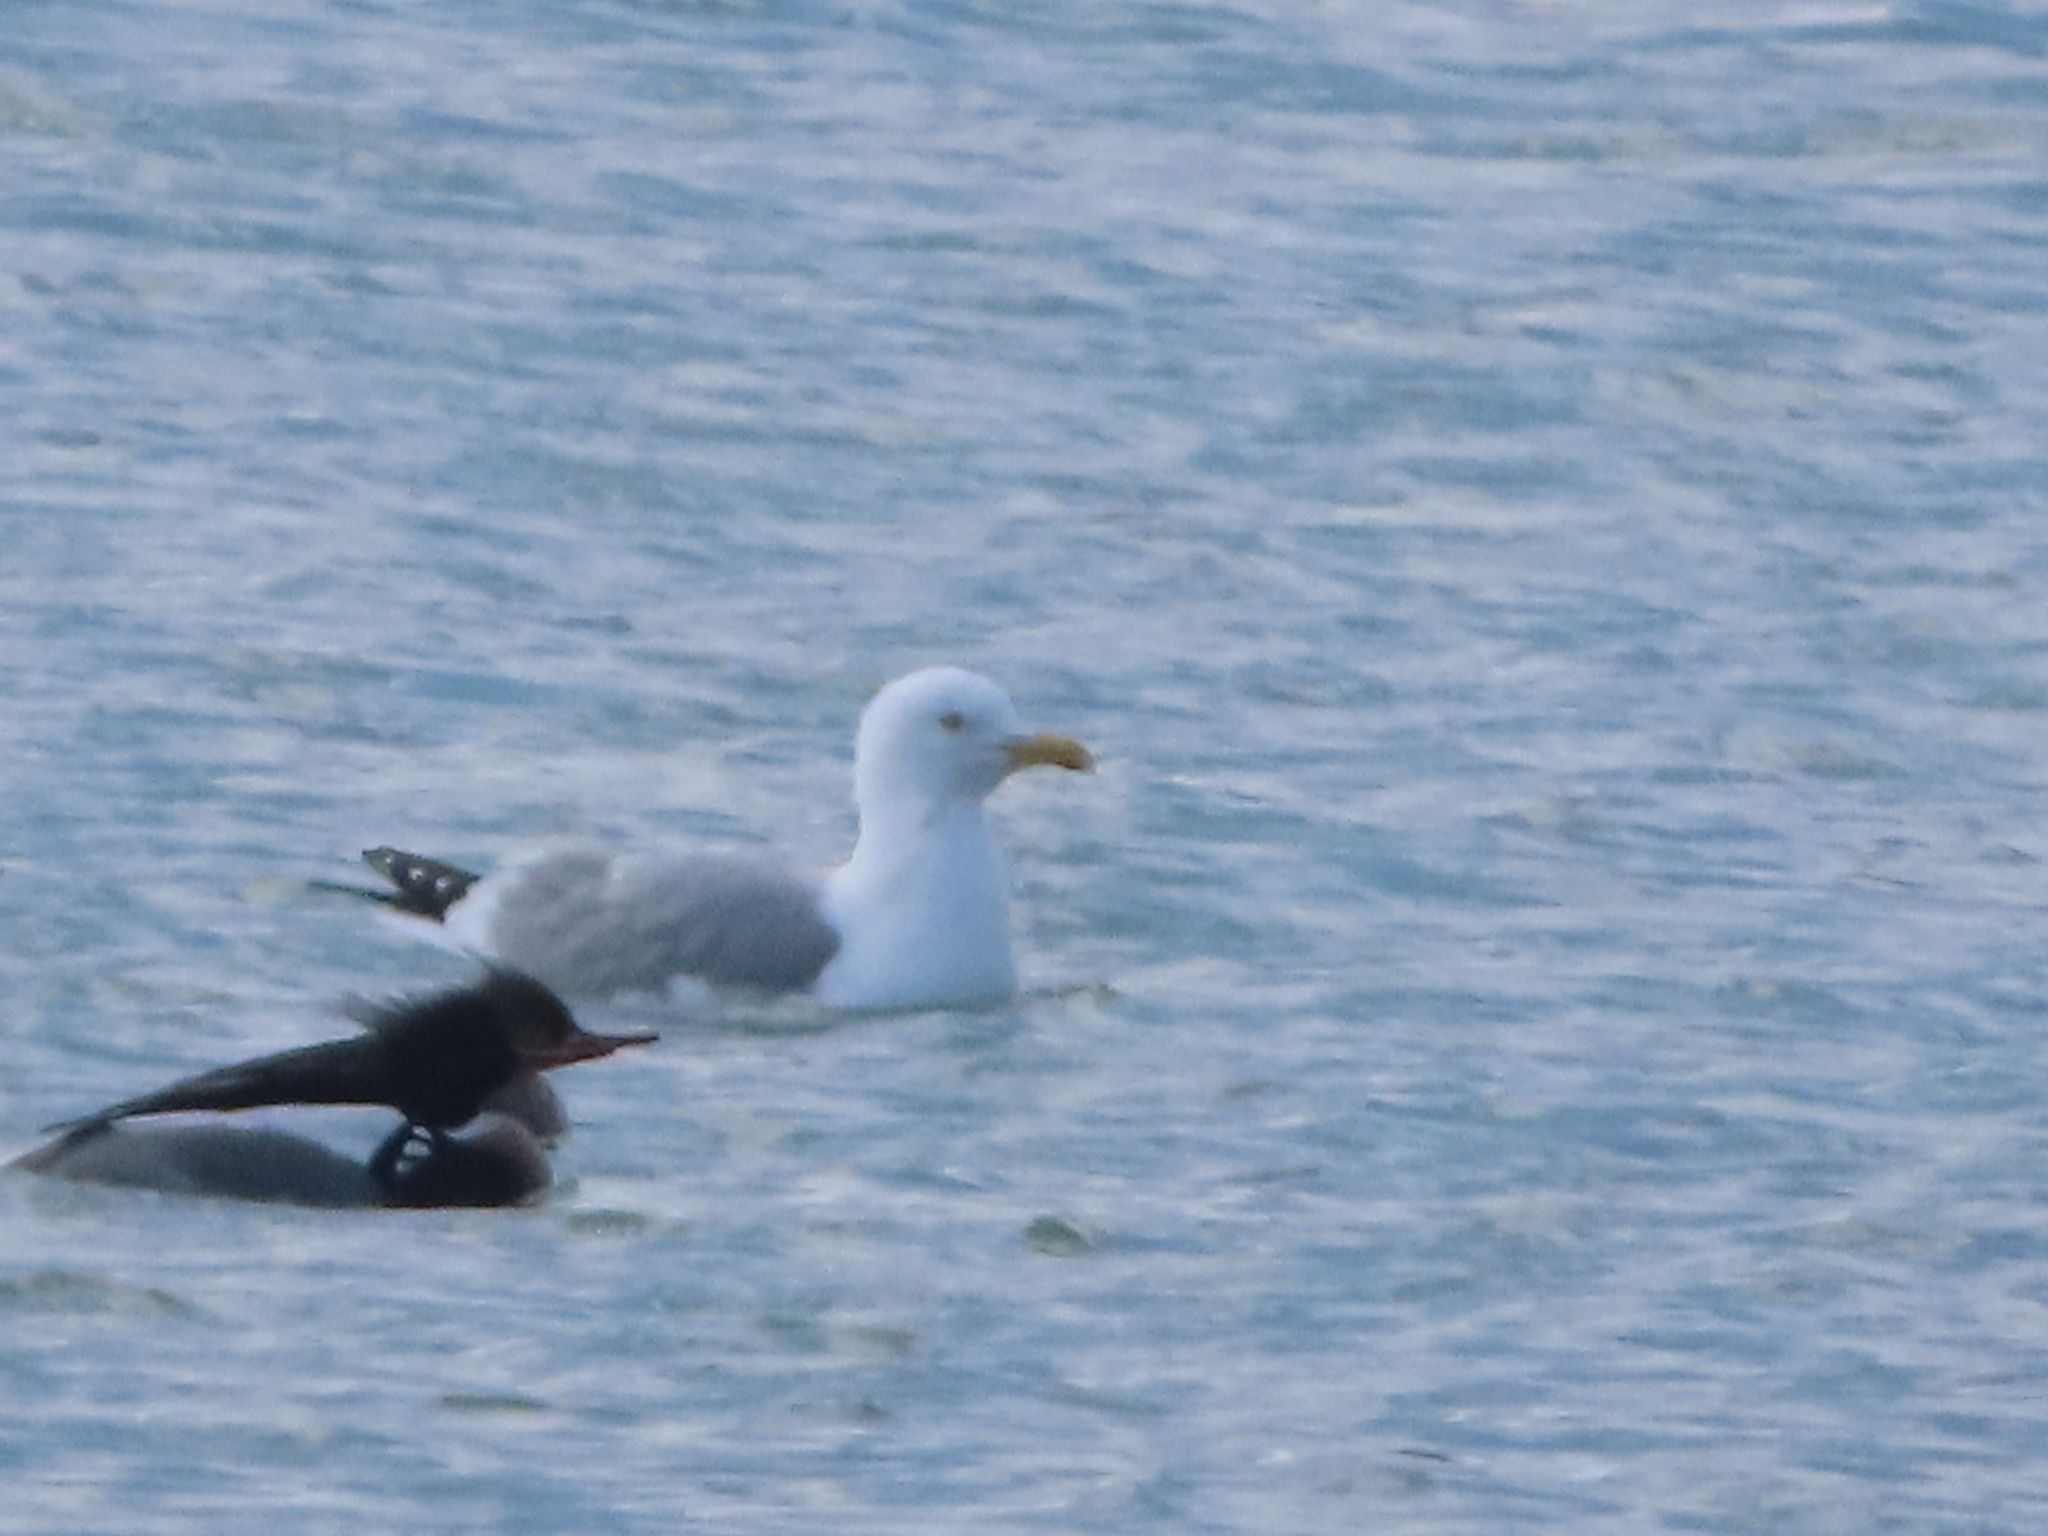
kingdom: Animalia
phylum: Chordata
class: Aves
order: Charadriiformes
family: Laridae
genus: Larus
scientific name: Larus argentatus
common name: Herring gull
